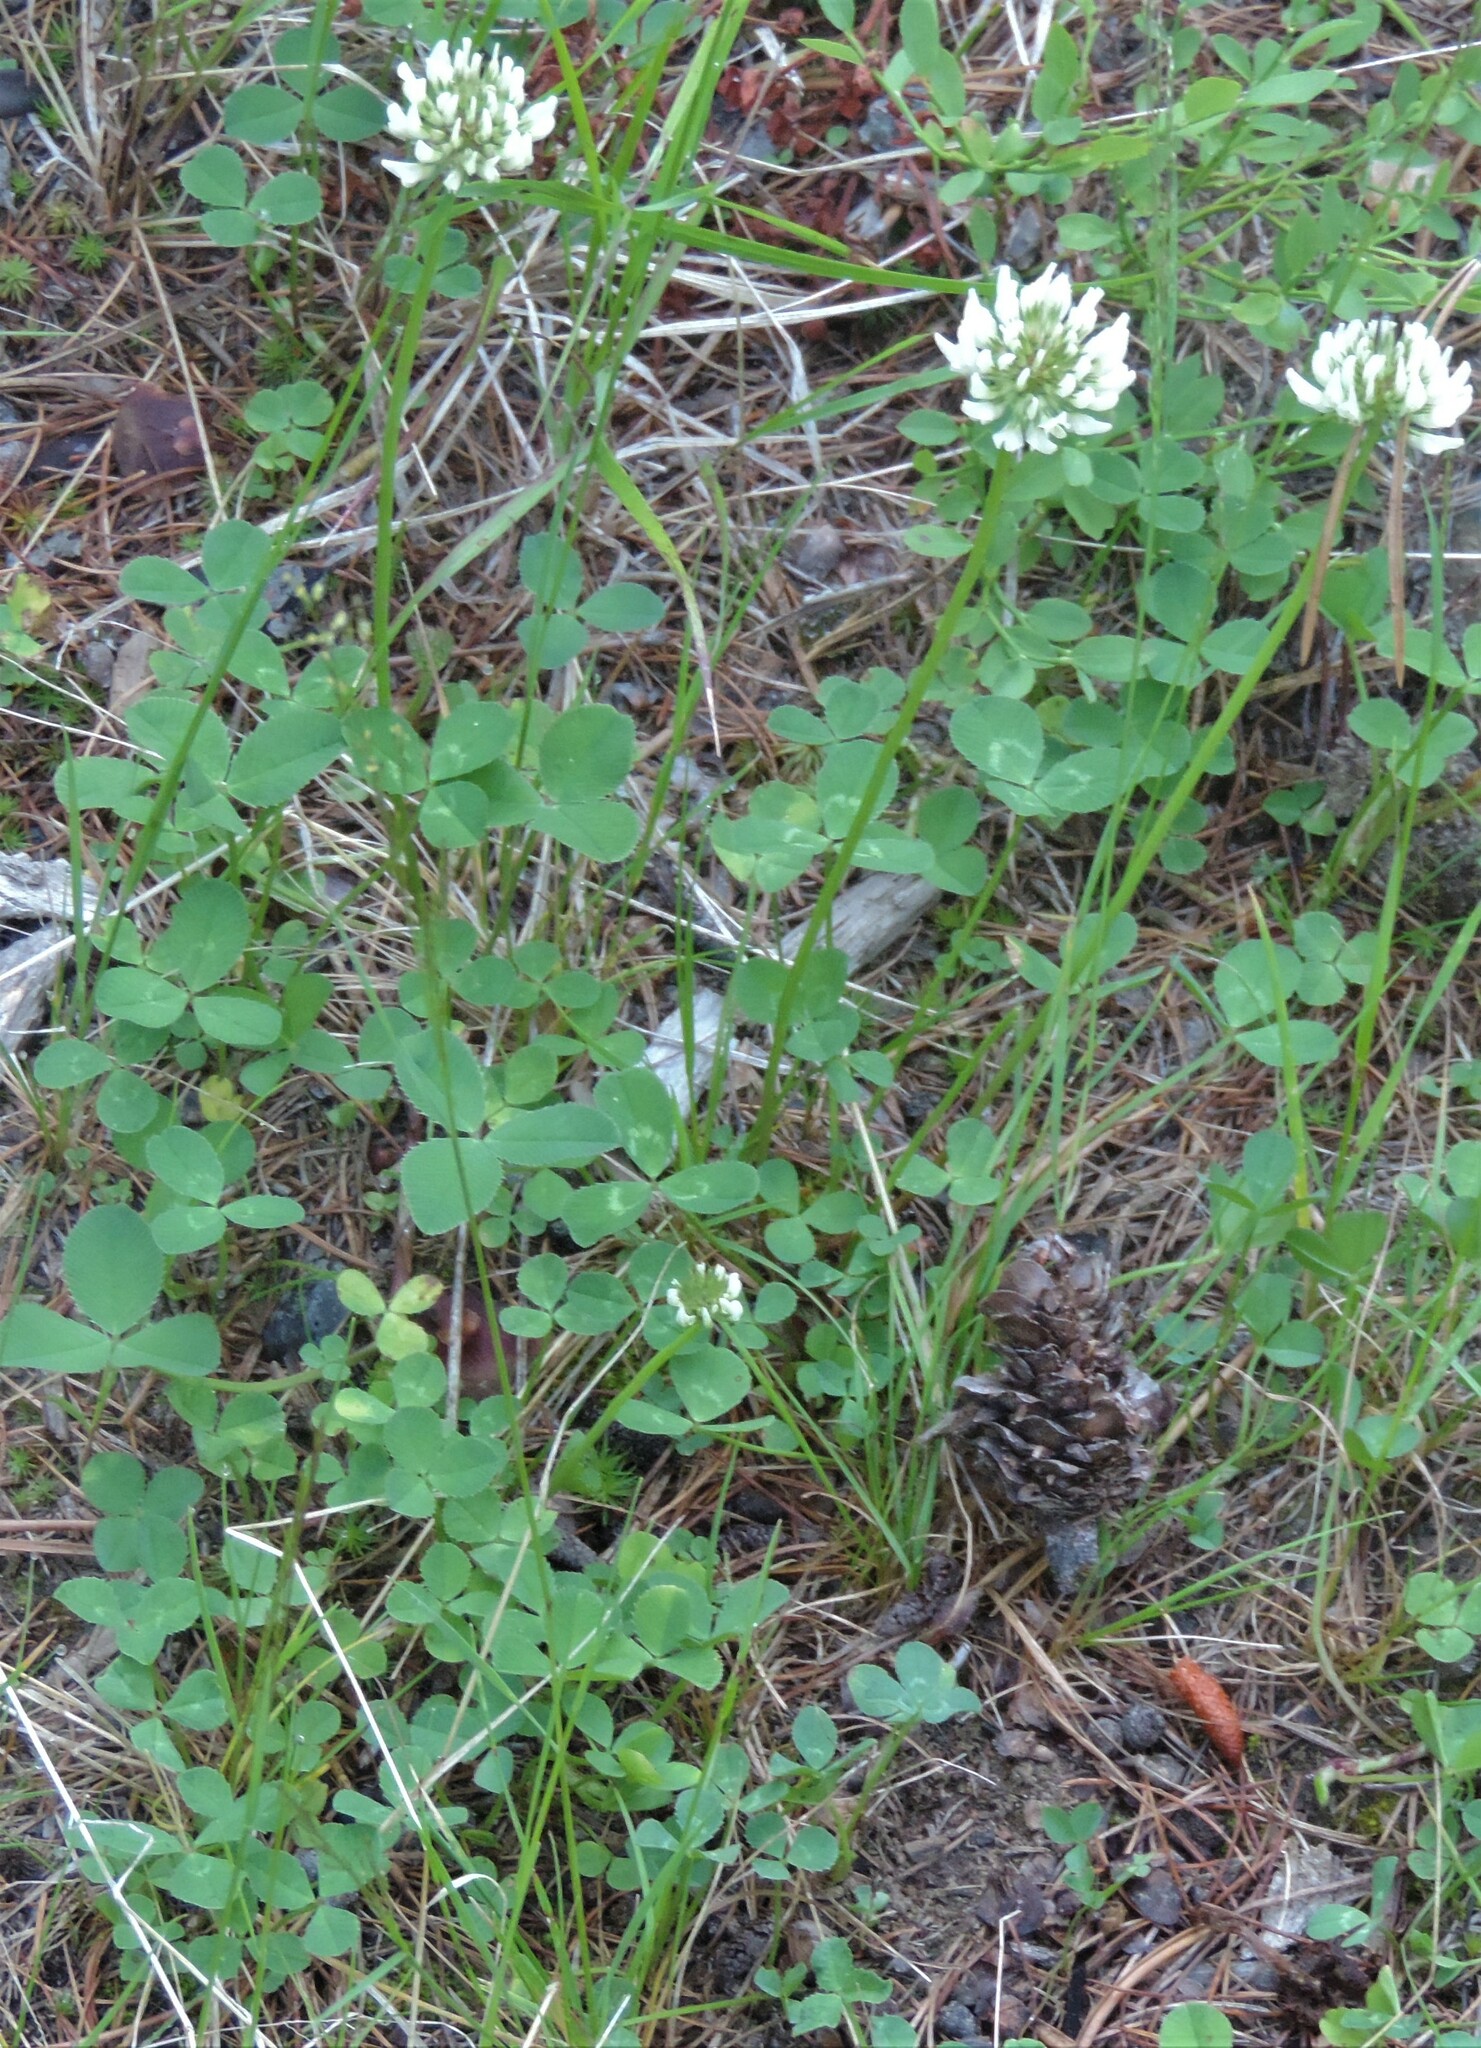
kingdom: Plantae
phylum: Tracheophyta
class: Magnoliopsida
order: Fabales
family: Fabaceae
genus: Trifolium
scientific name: Trifolium repens
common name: White clover
